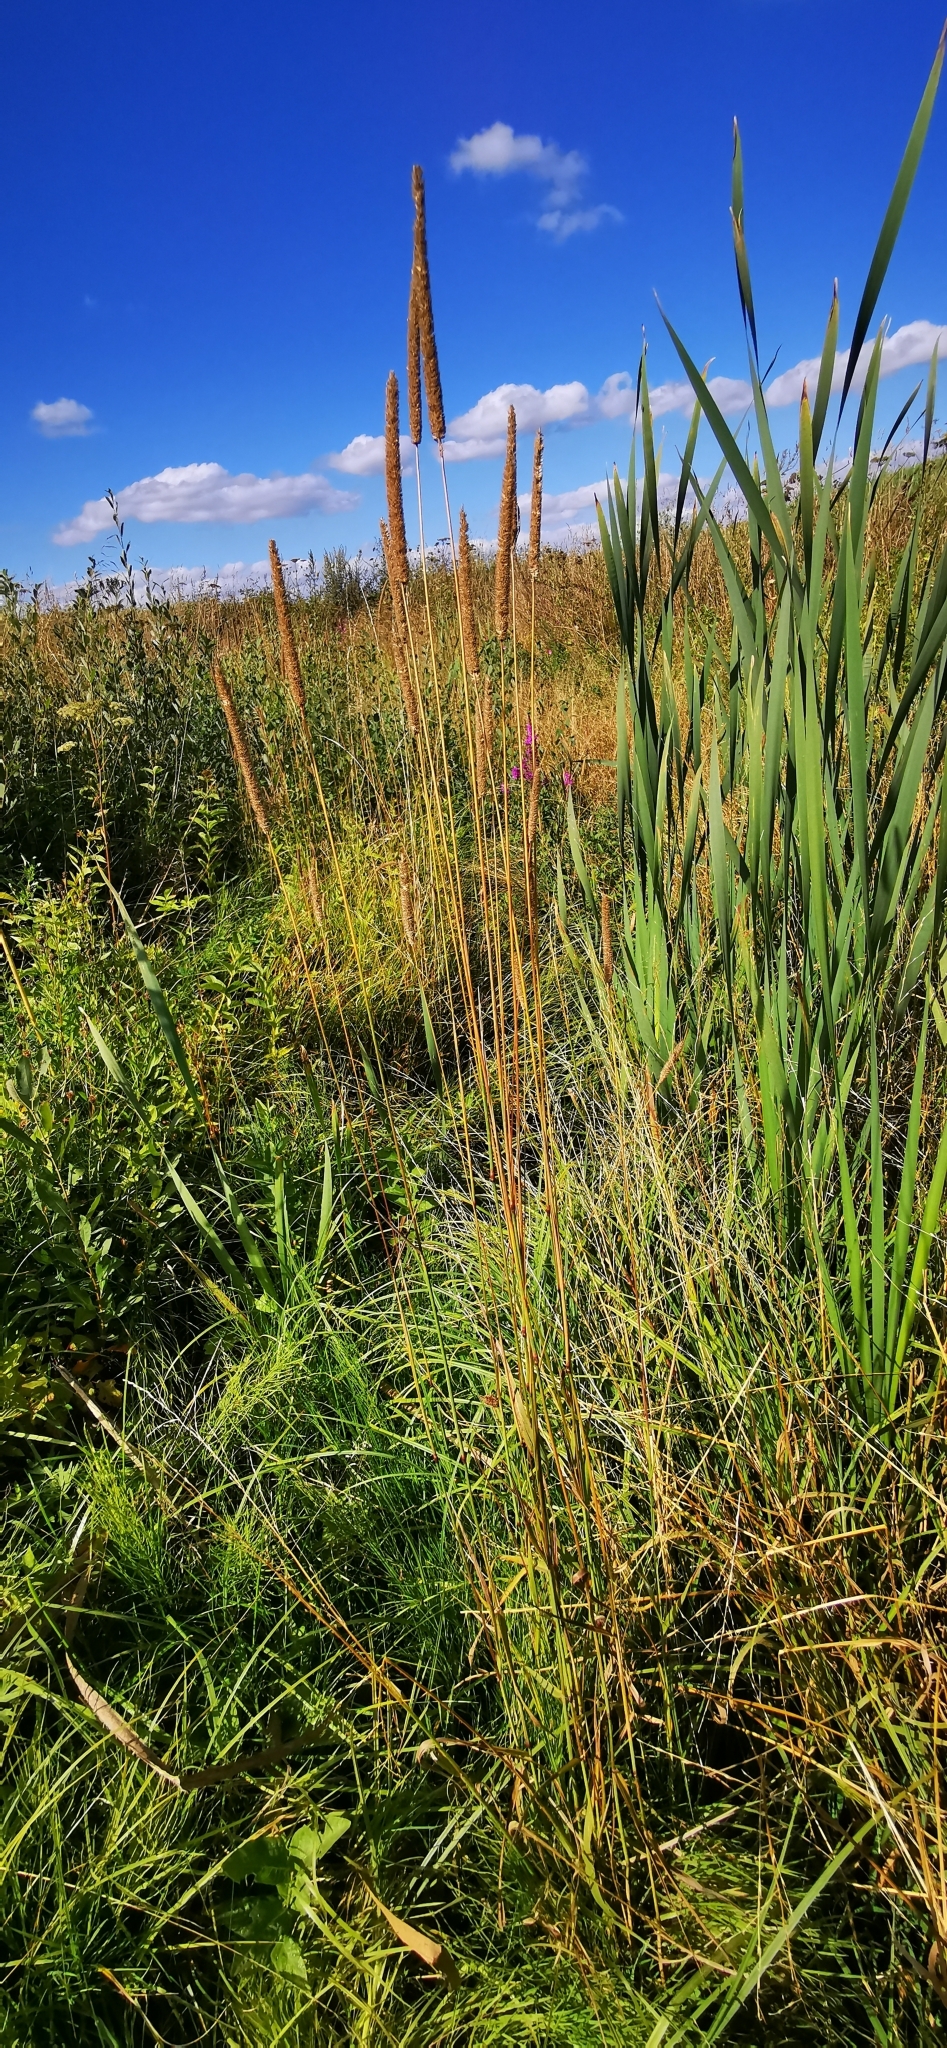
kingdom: Plantae
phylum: Tracheophyta
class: Liliopsida
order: Poales
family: Poaceae
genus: Phleum
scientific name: Phleum pratense
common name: Timothy grass
